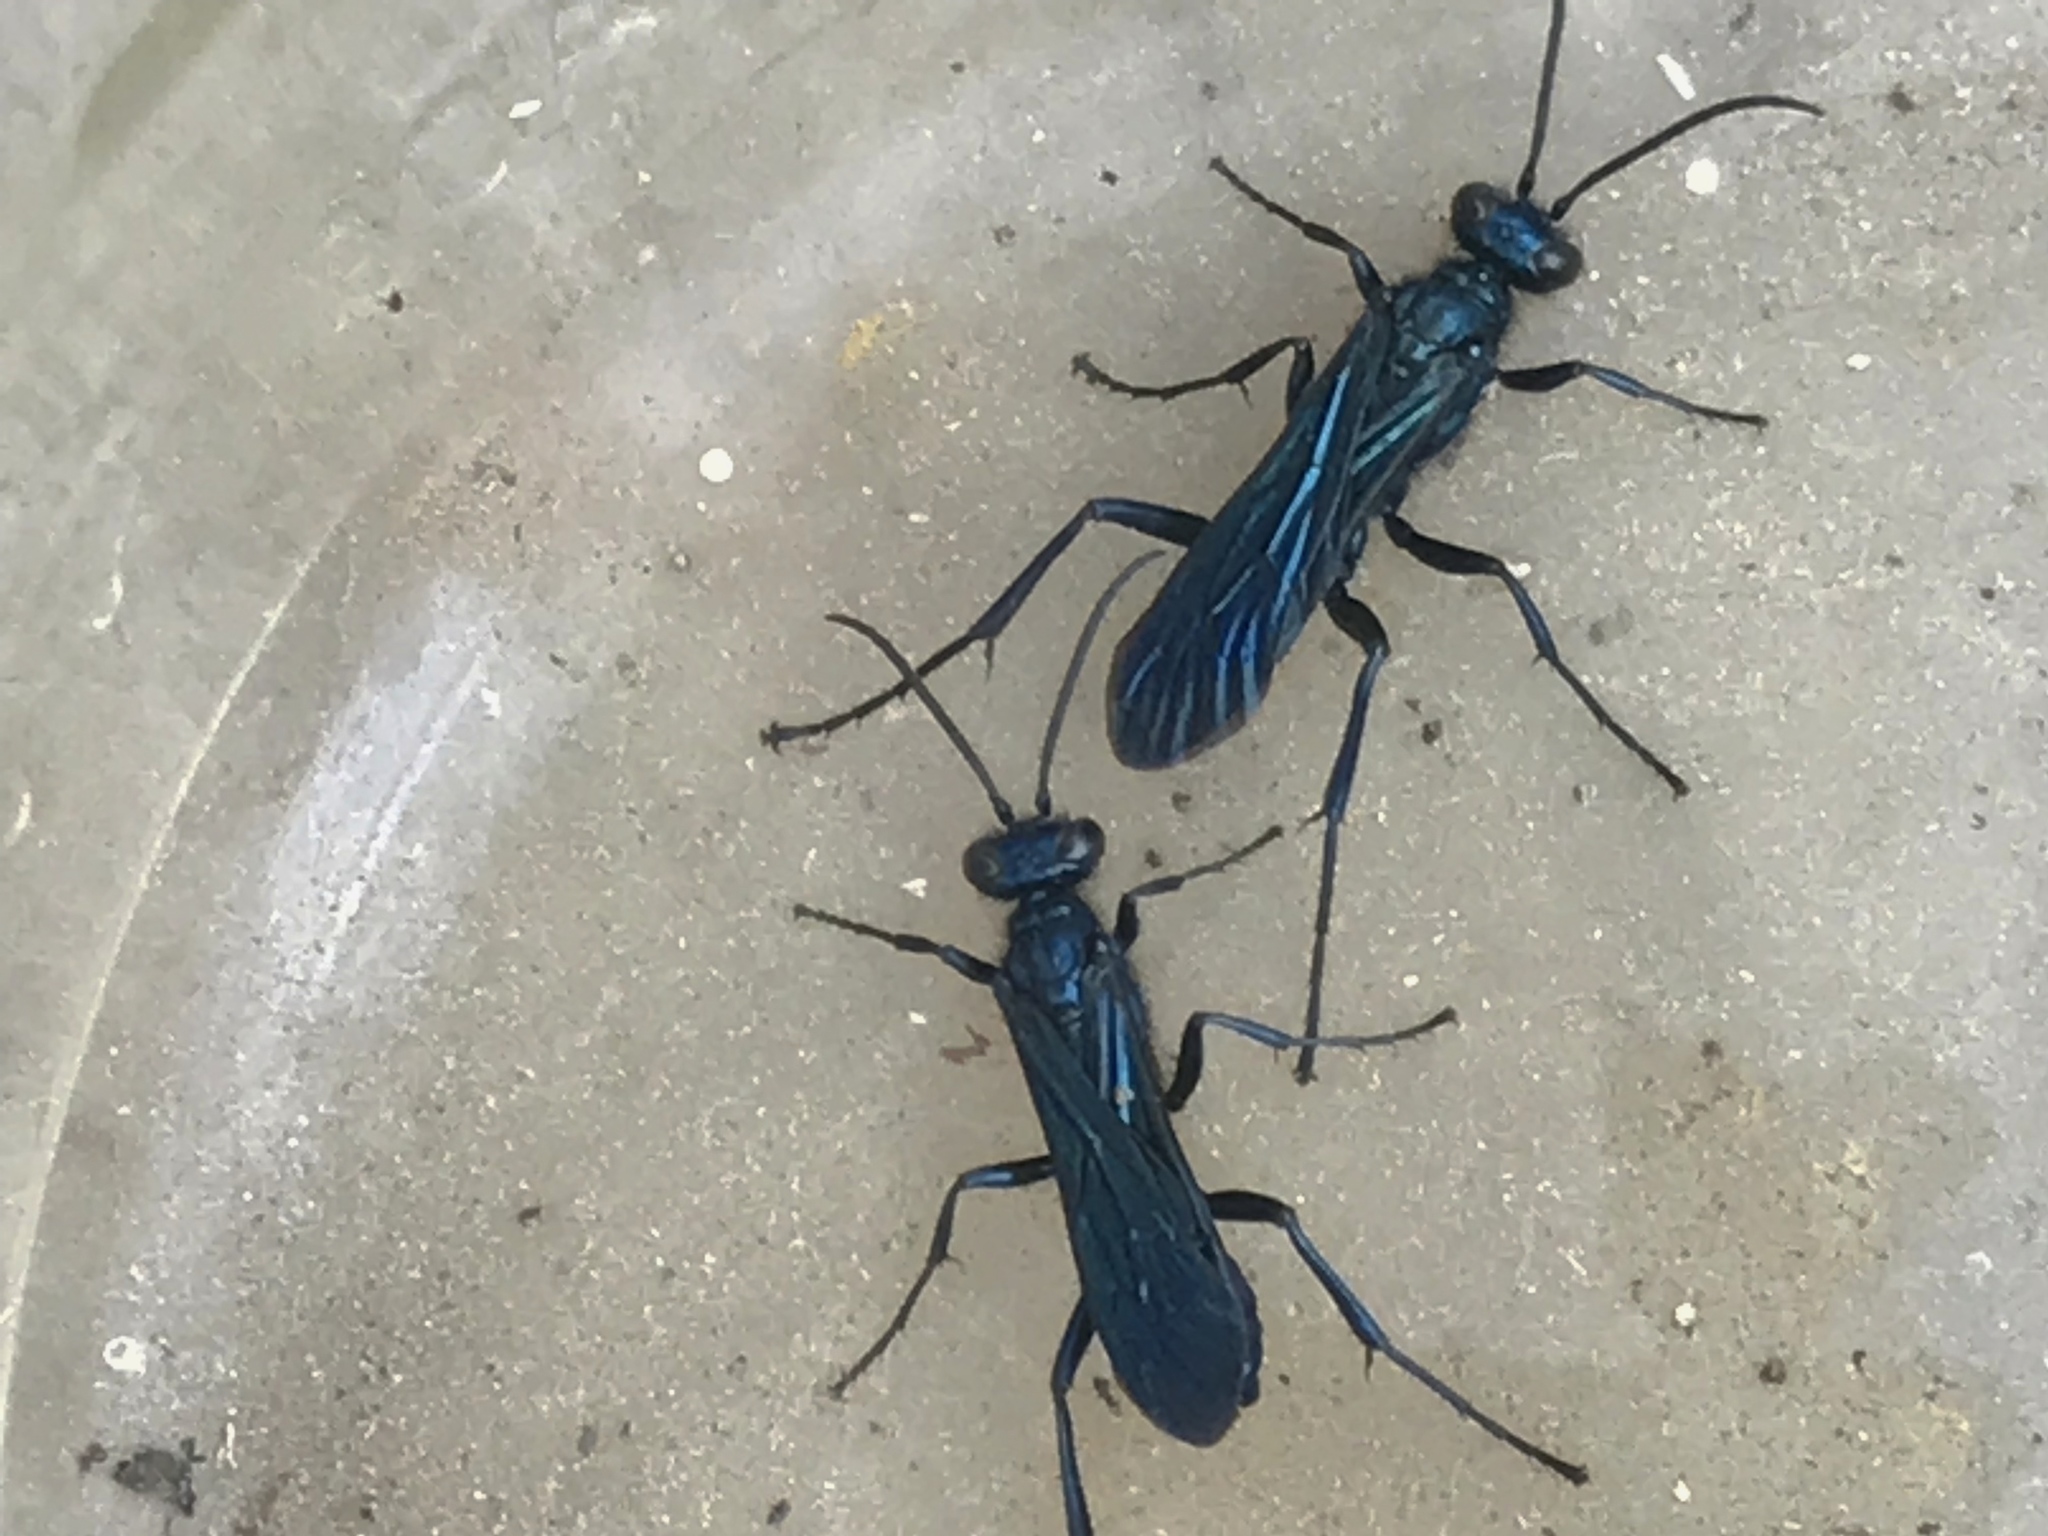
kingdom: Animalia
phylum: Arthropoda
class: Insecta
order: Hymenoptera
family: Sphecidae
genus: Chalybion
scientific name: Chalybion californicum
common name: Mud dauber
